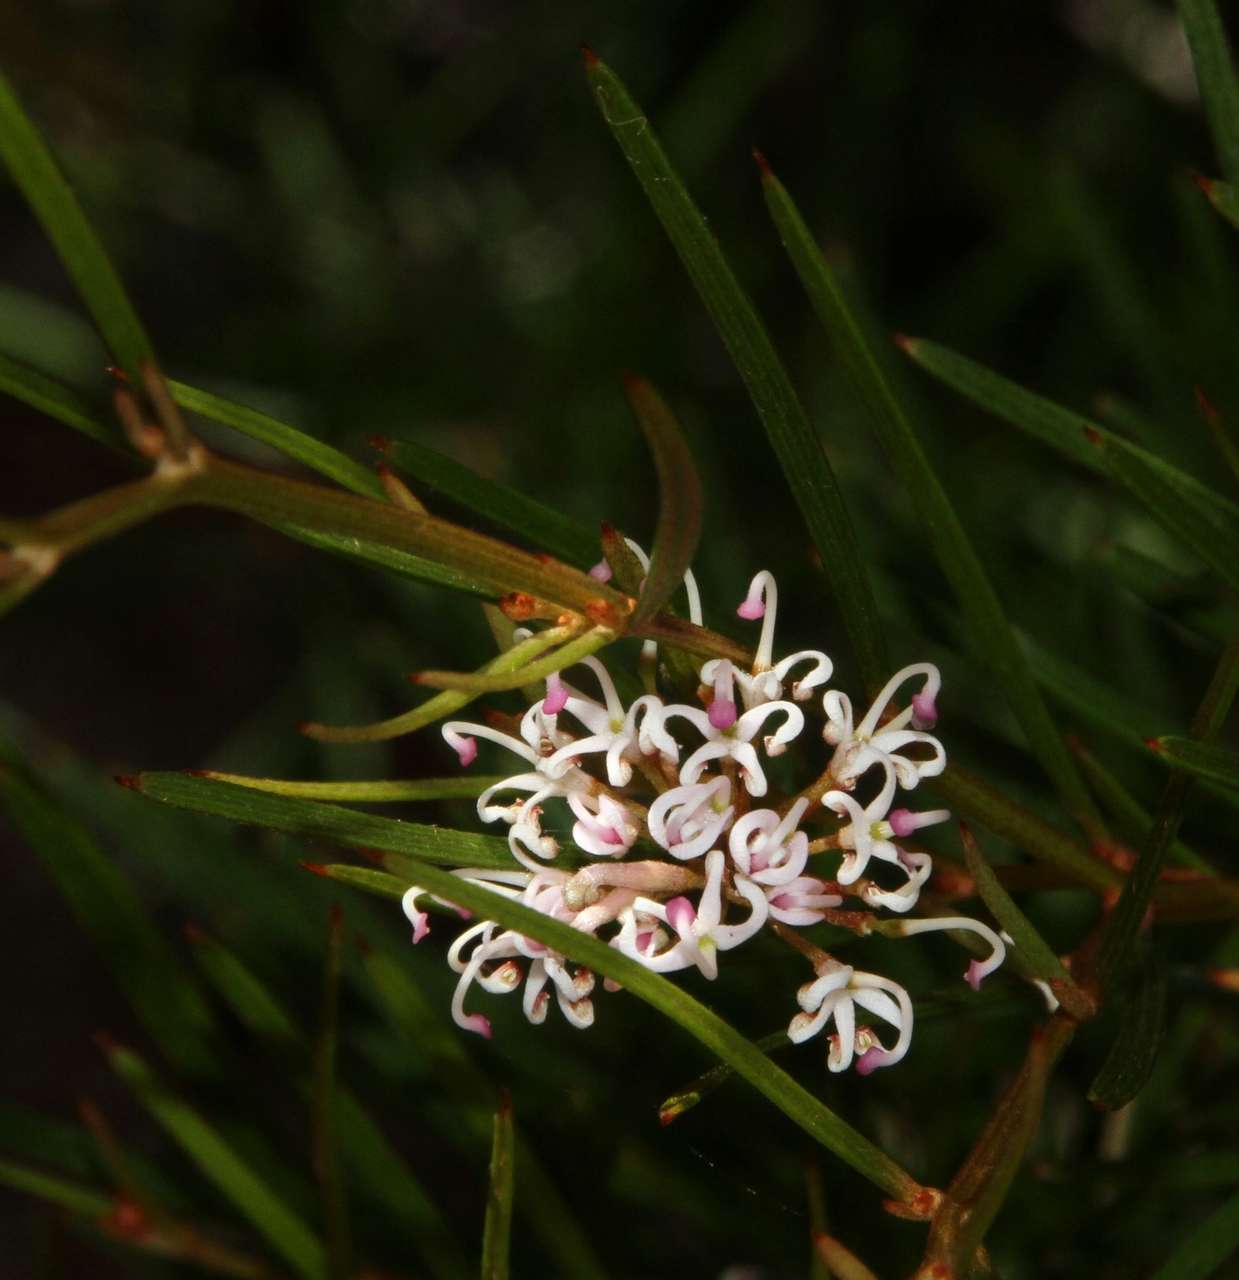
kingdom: Plantae
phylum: Tracheophyta
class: Magnoliopsida
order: Proteales
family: Proteaceae
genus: Grevillea
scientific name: Grevillea neurophylla
